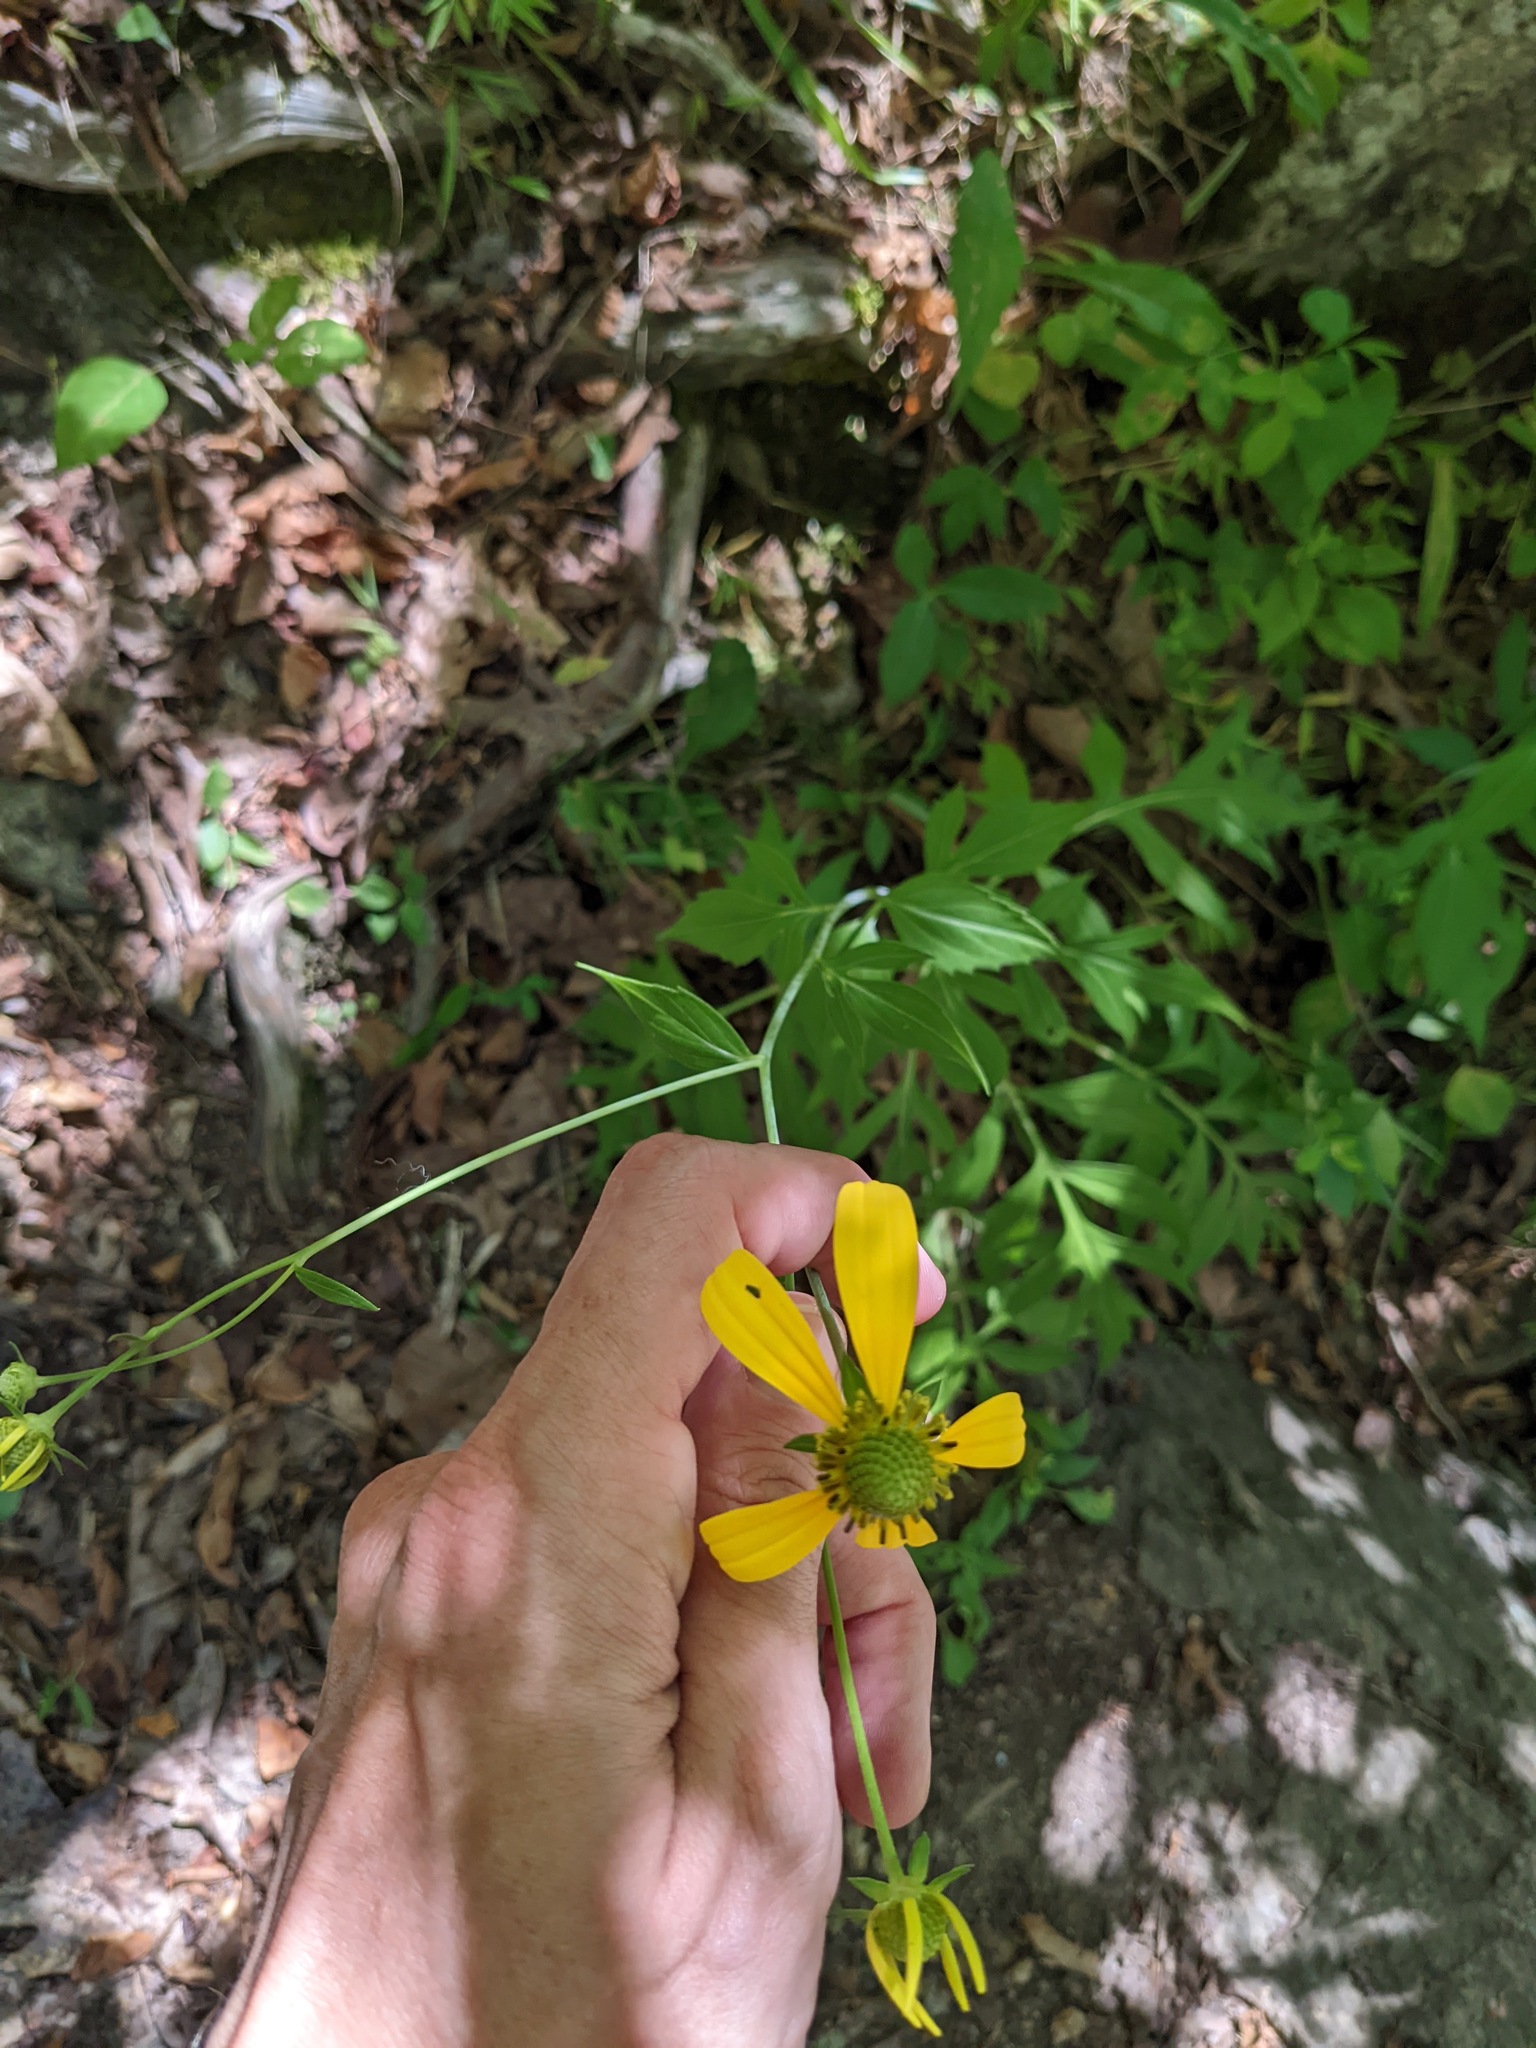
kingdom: Plantae
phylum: Tracheophyta
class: Magnoliopsida
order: Asterales
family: Asteraceae
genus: Rudbeckia
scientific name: Rudbeckia laciniata
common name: Coneflower
